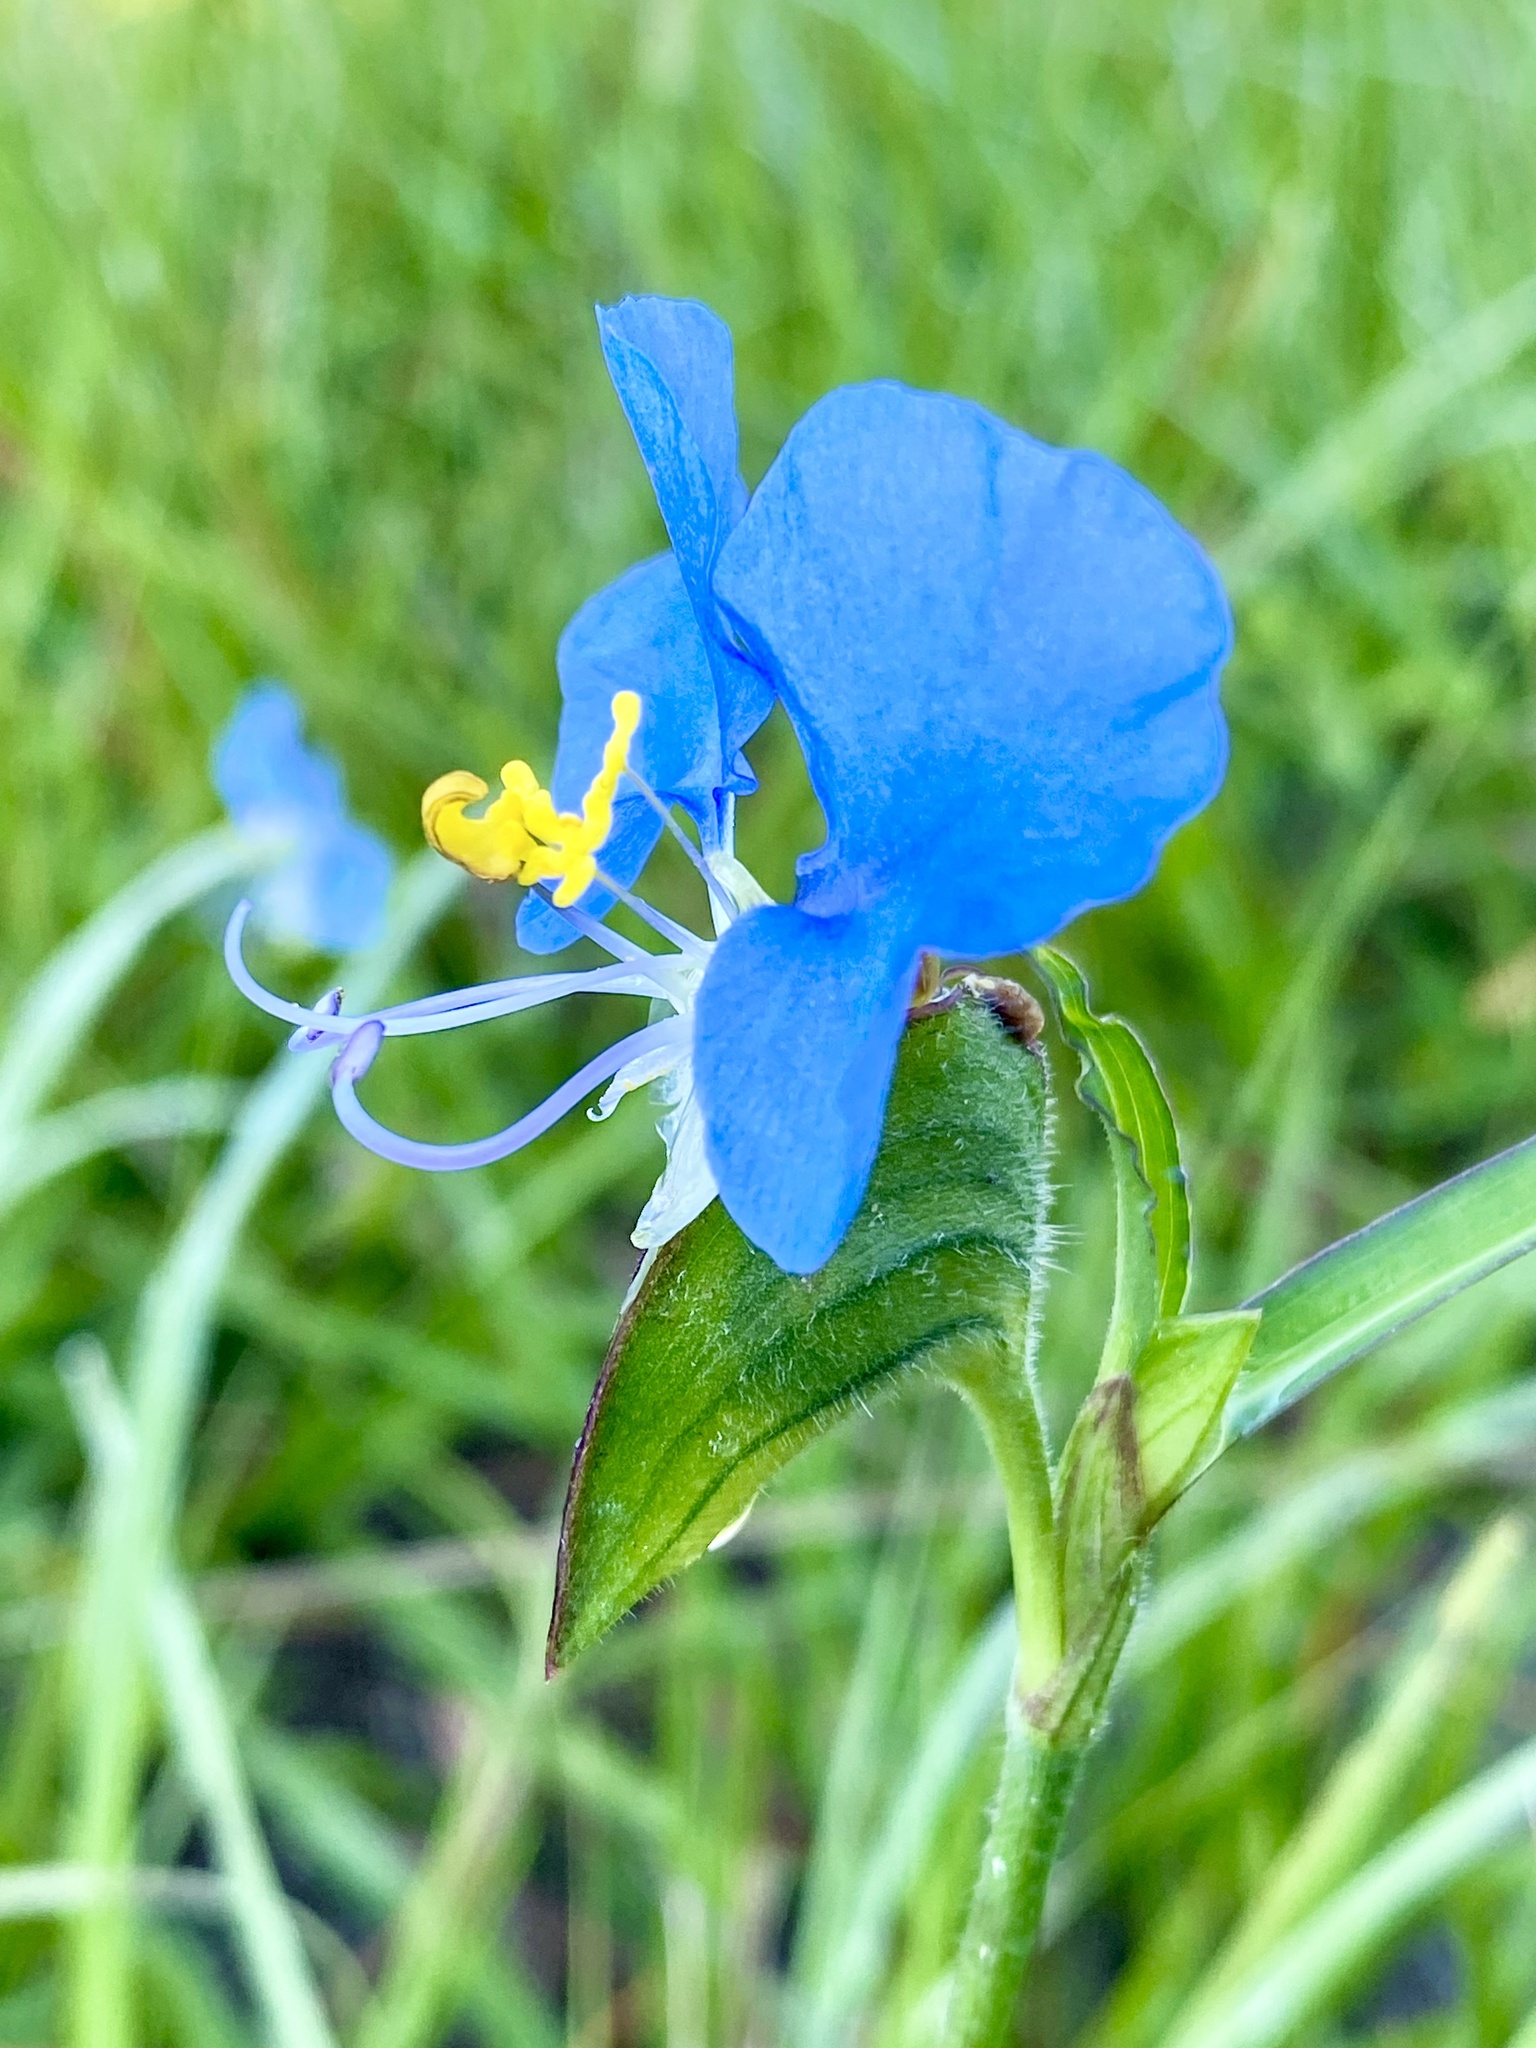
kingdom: Plantae
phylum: Tracheophyta
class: Liliopsida
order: Commelinales
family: Commelinaceae
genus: Commelina
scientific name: Commelina erecta
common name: Blousel blommetjie
